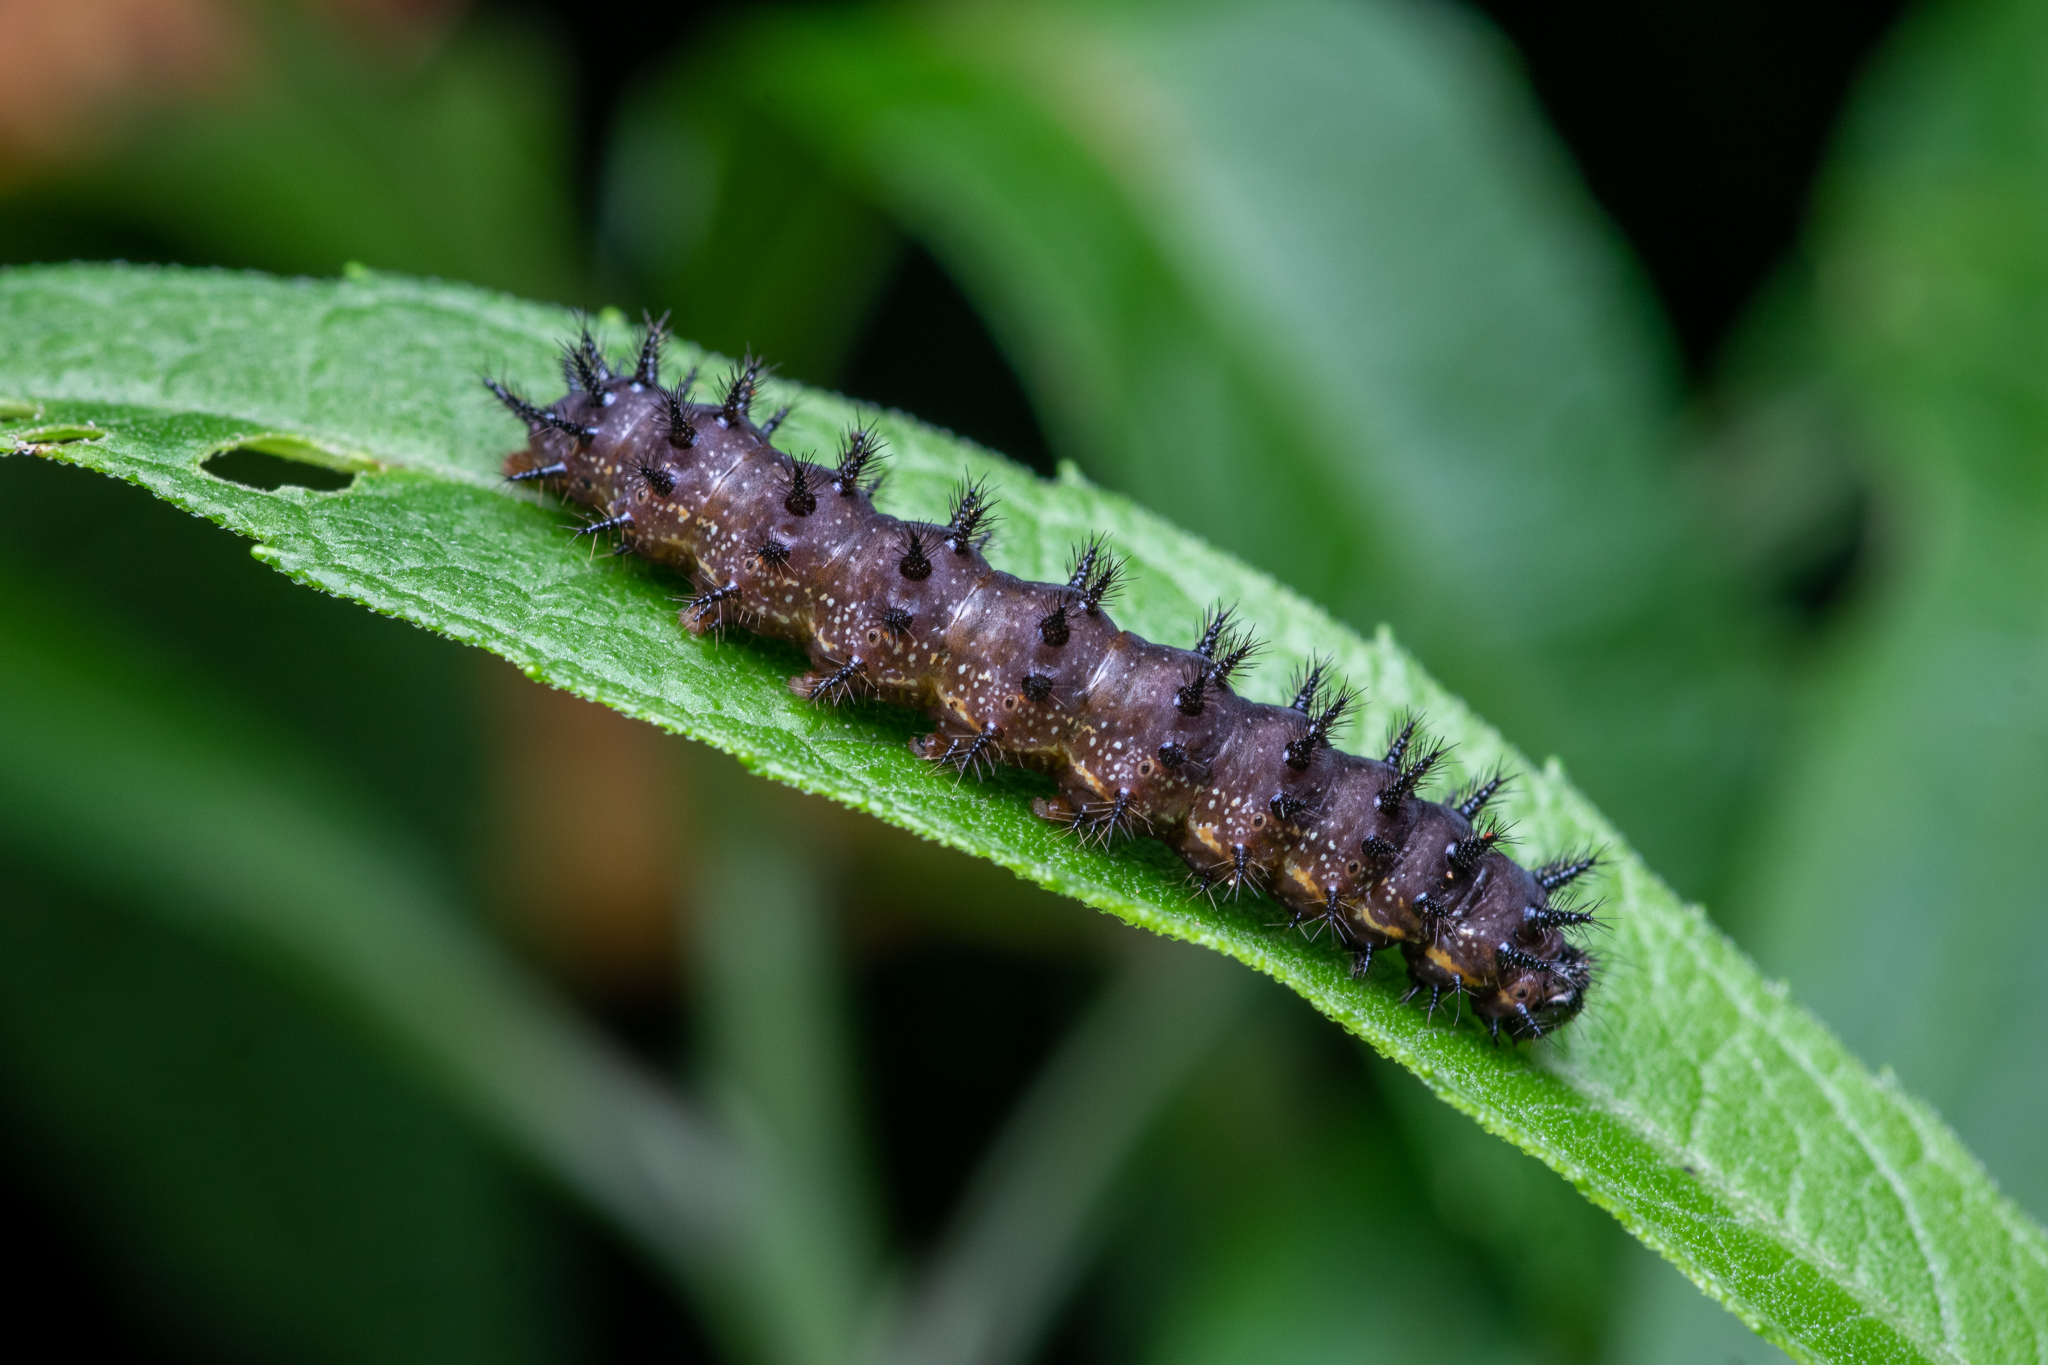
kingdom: Animalia
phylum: Arthropoda
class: Insecta
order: Lepidoptera
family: Nymphalidae
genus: Chlosyne
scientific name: Chlosyne nycteis
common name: Silvery checkerspot
